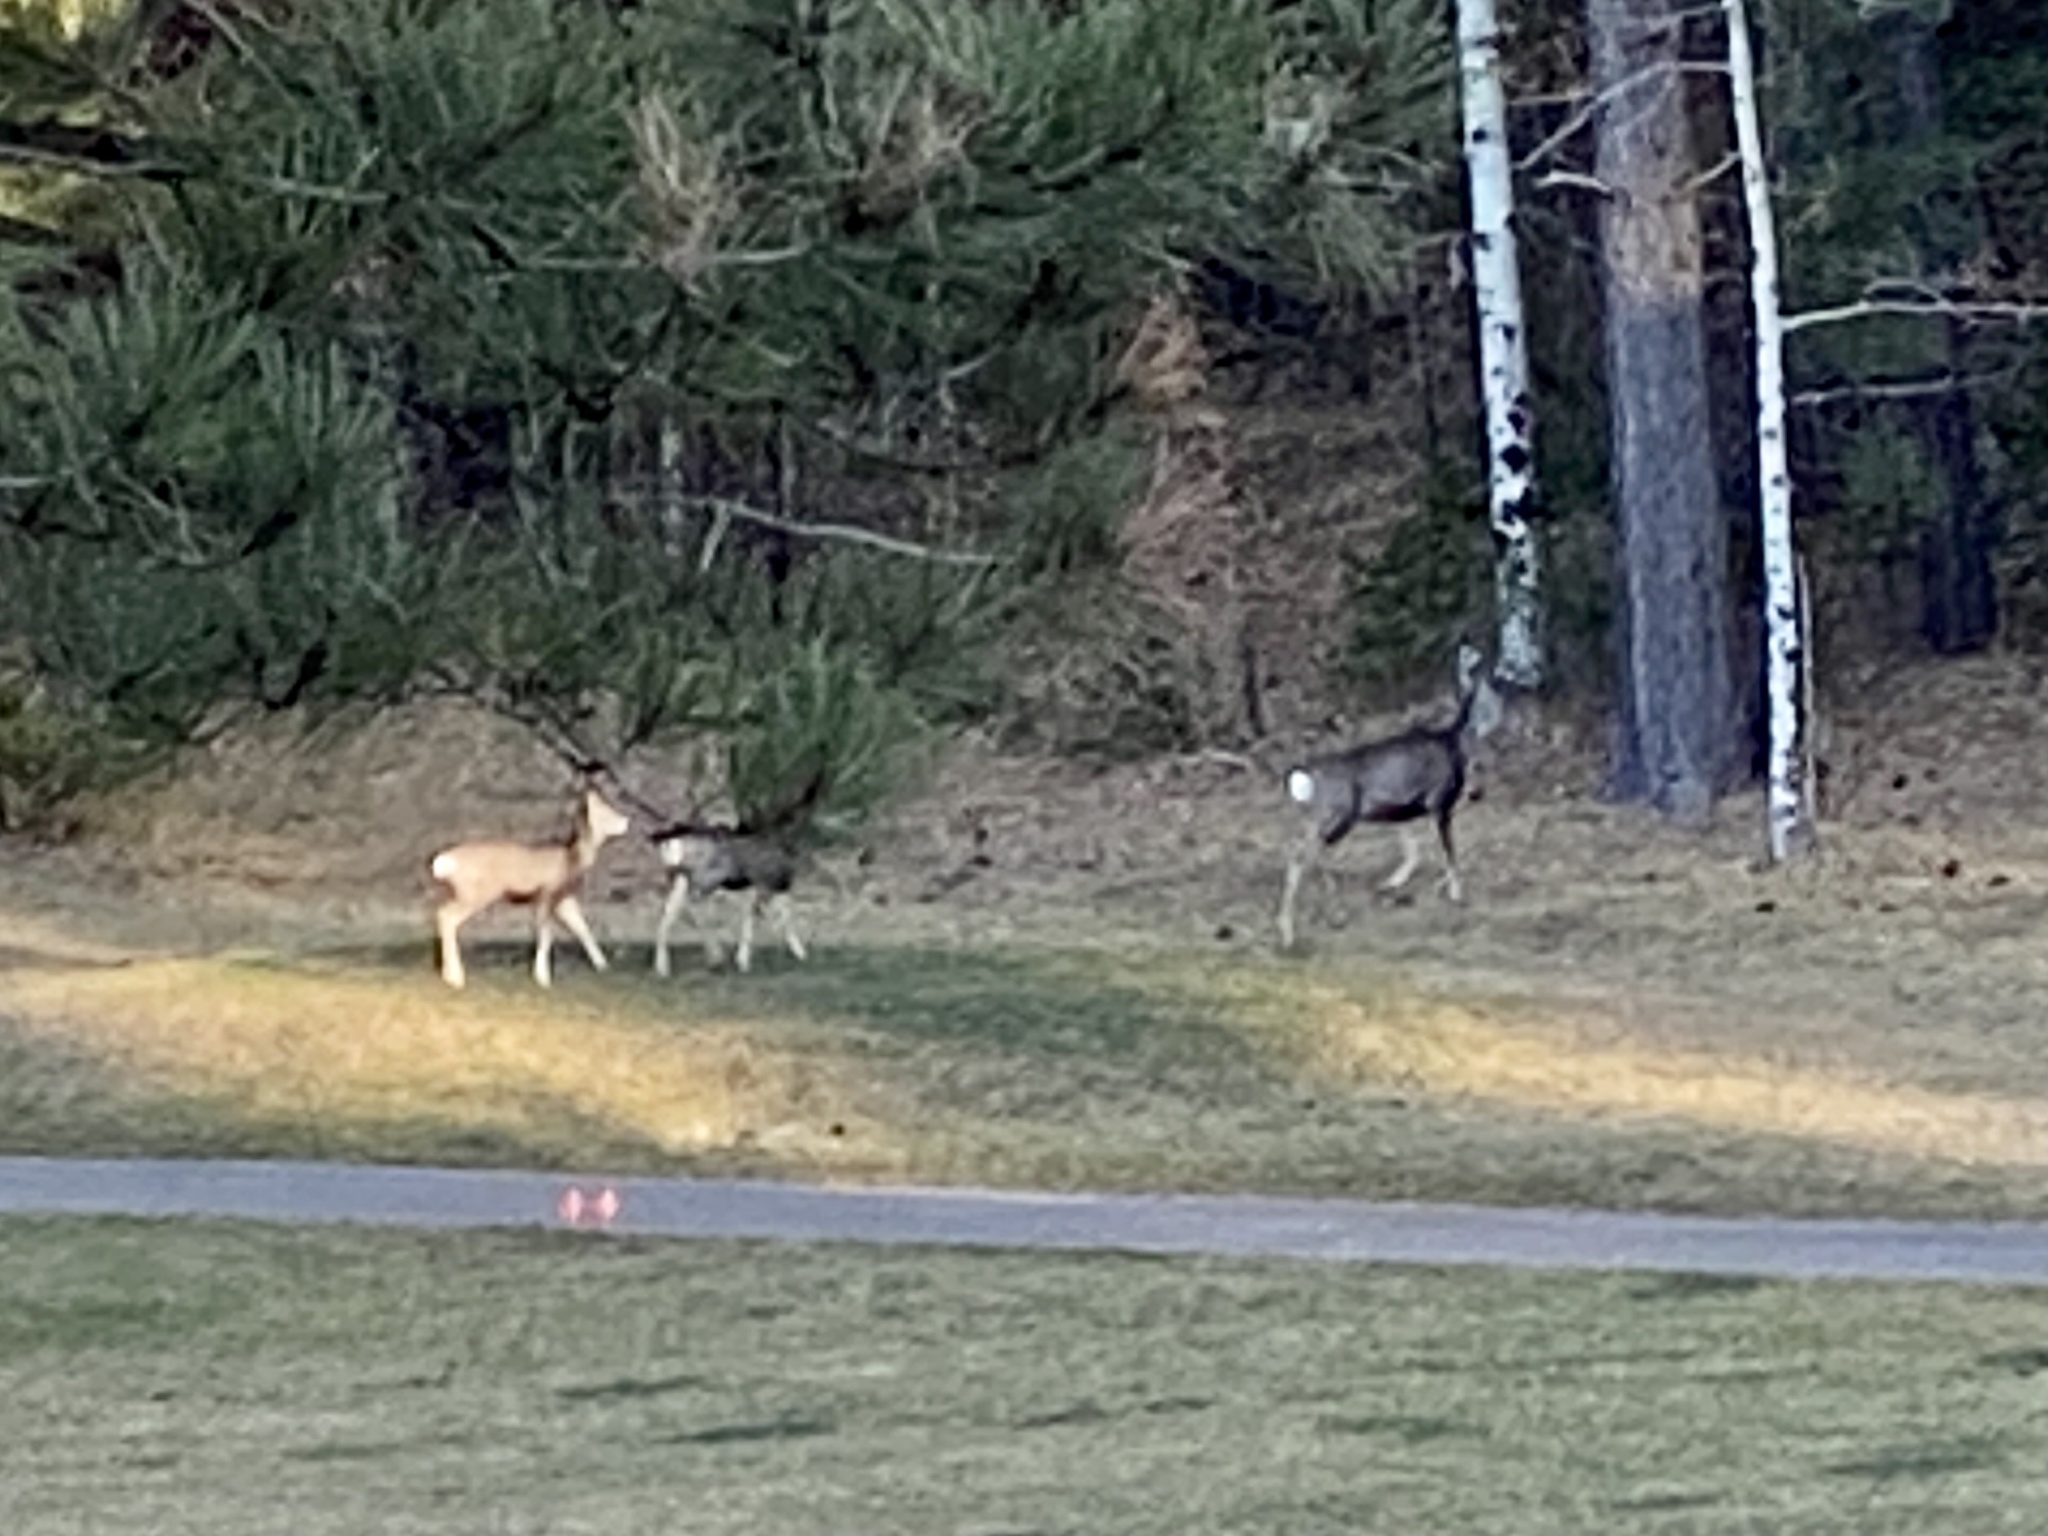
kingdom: Animalia
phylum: Chordata
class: Mammalia
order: Artiodactyla
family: Cervidae
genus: Odocoileus
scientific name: Odocoileus hemionus
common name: Mule deer
